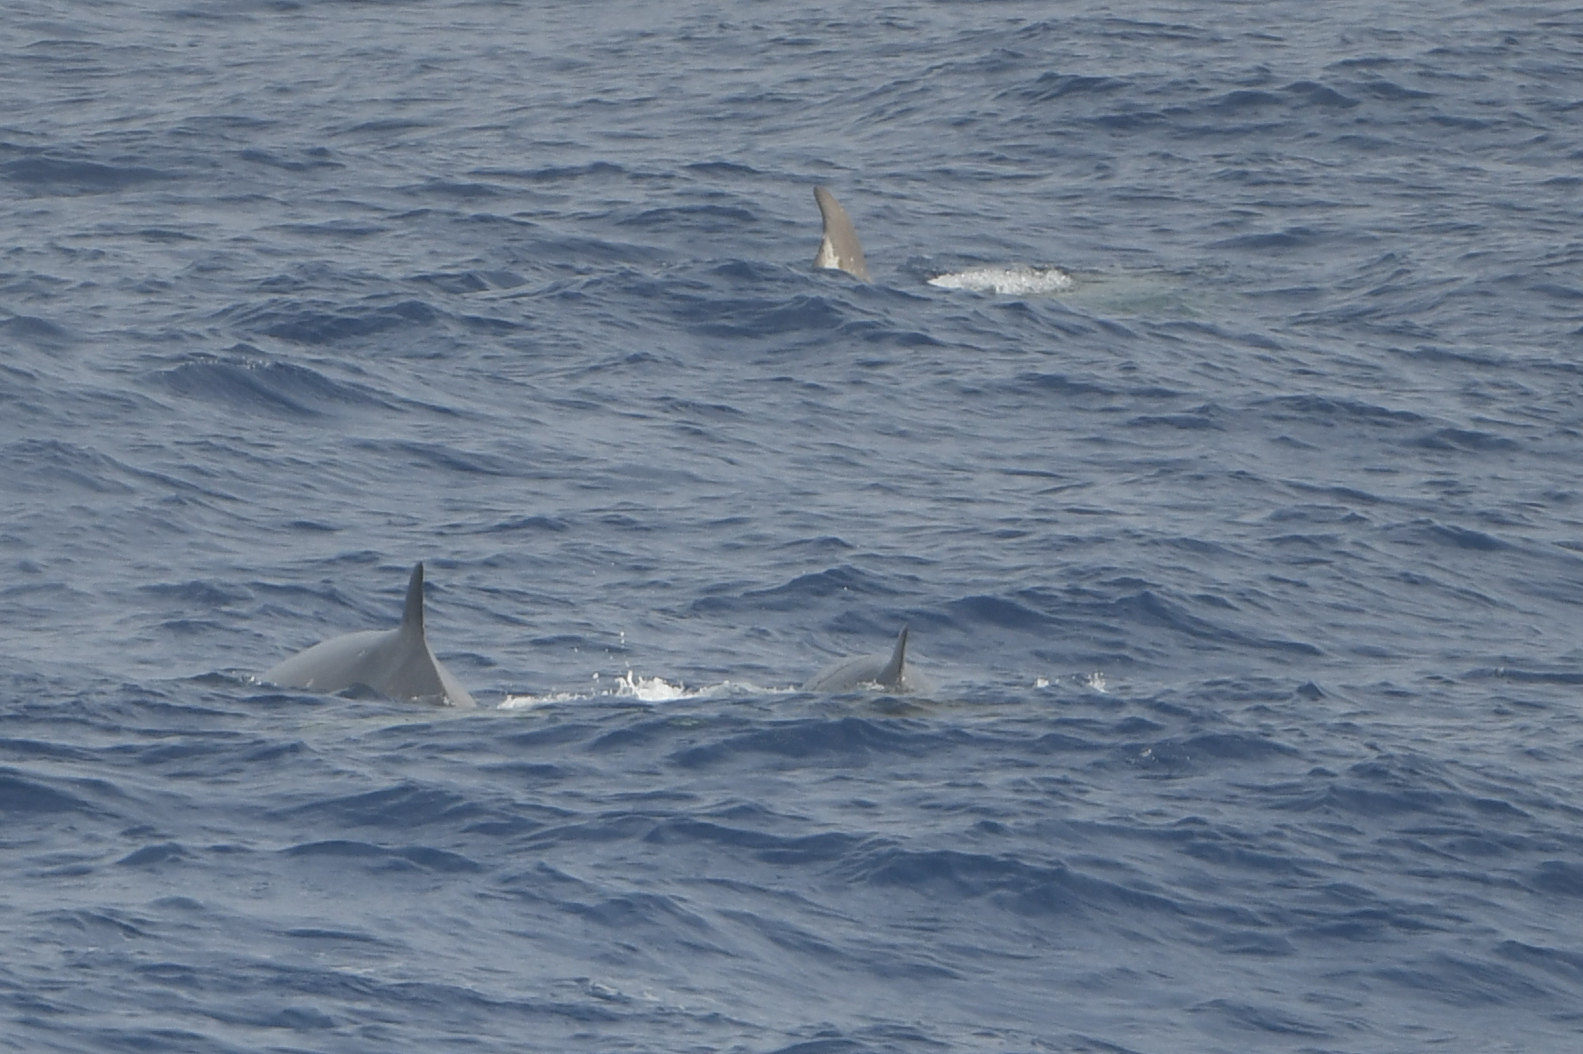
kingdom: Animalia
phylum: Chordata
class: Mammalia
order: Cetacea
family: Hyperoodontidae
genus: Hyperoodon
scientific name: Hyperoodon planifrons
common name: Southern bottlenose whale
